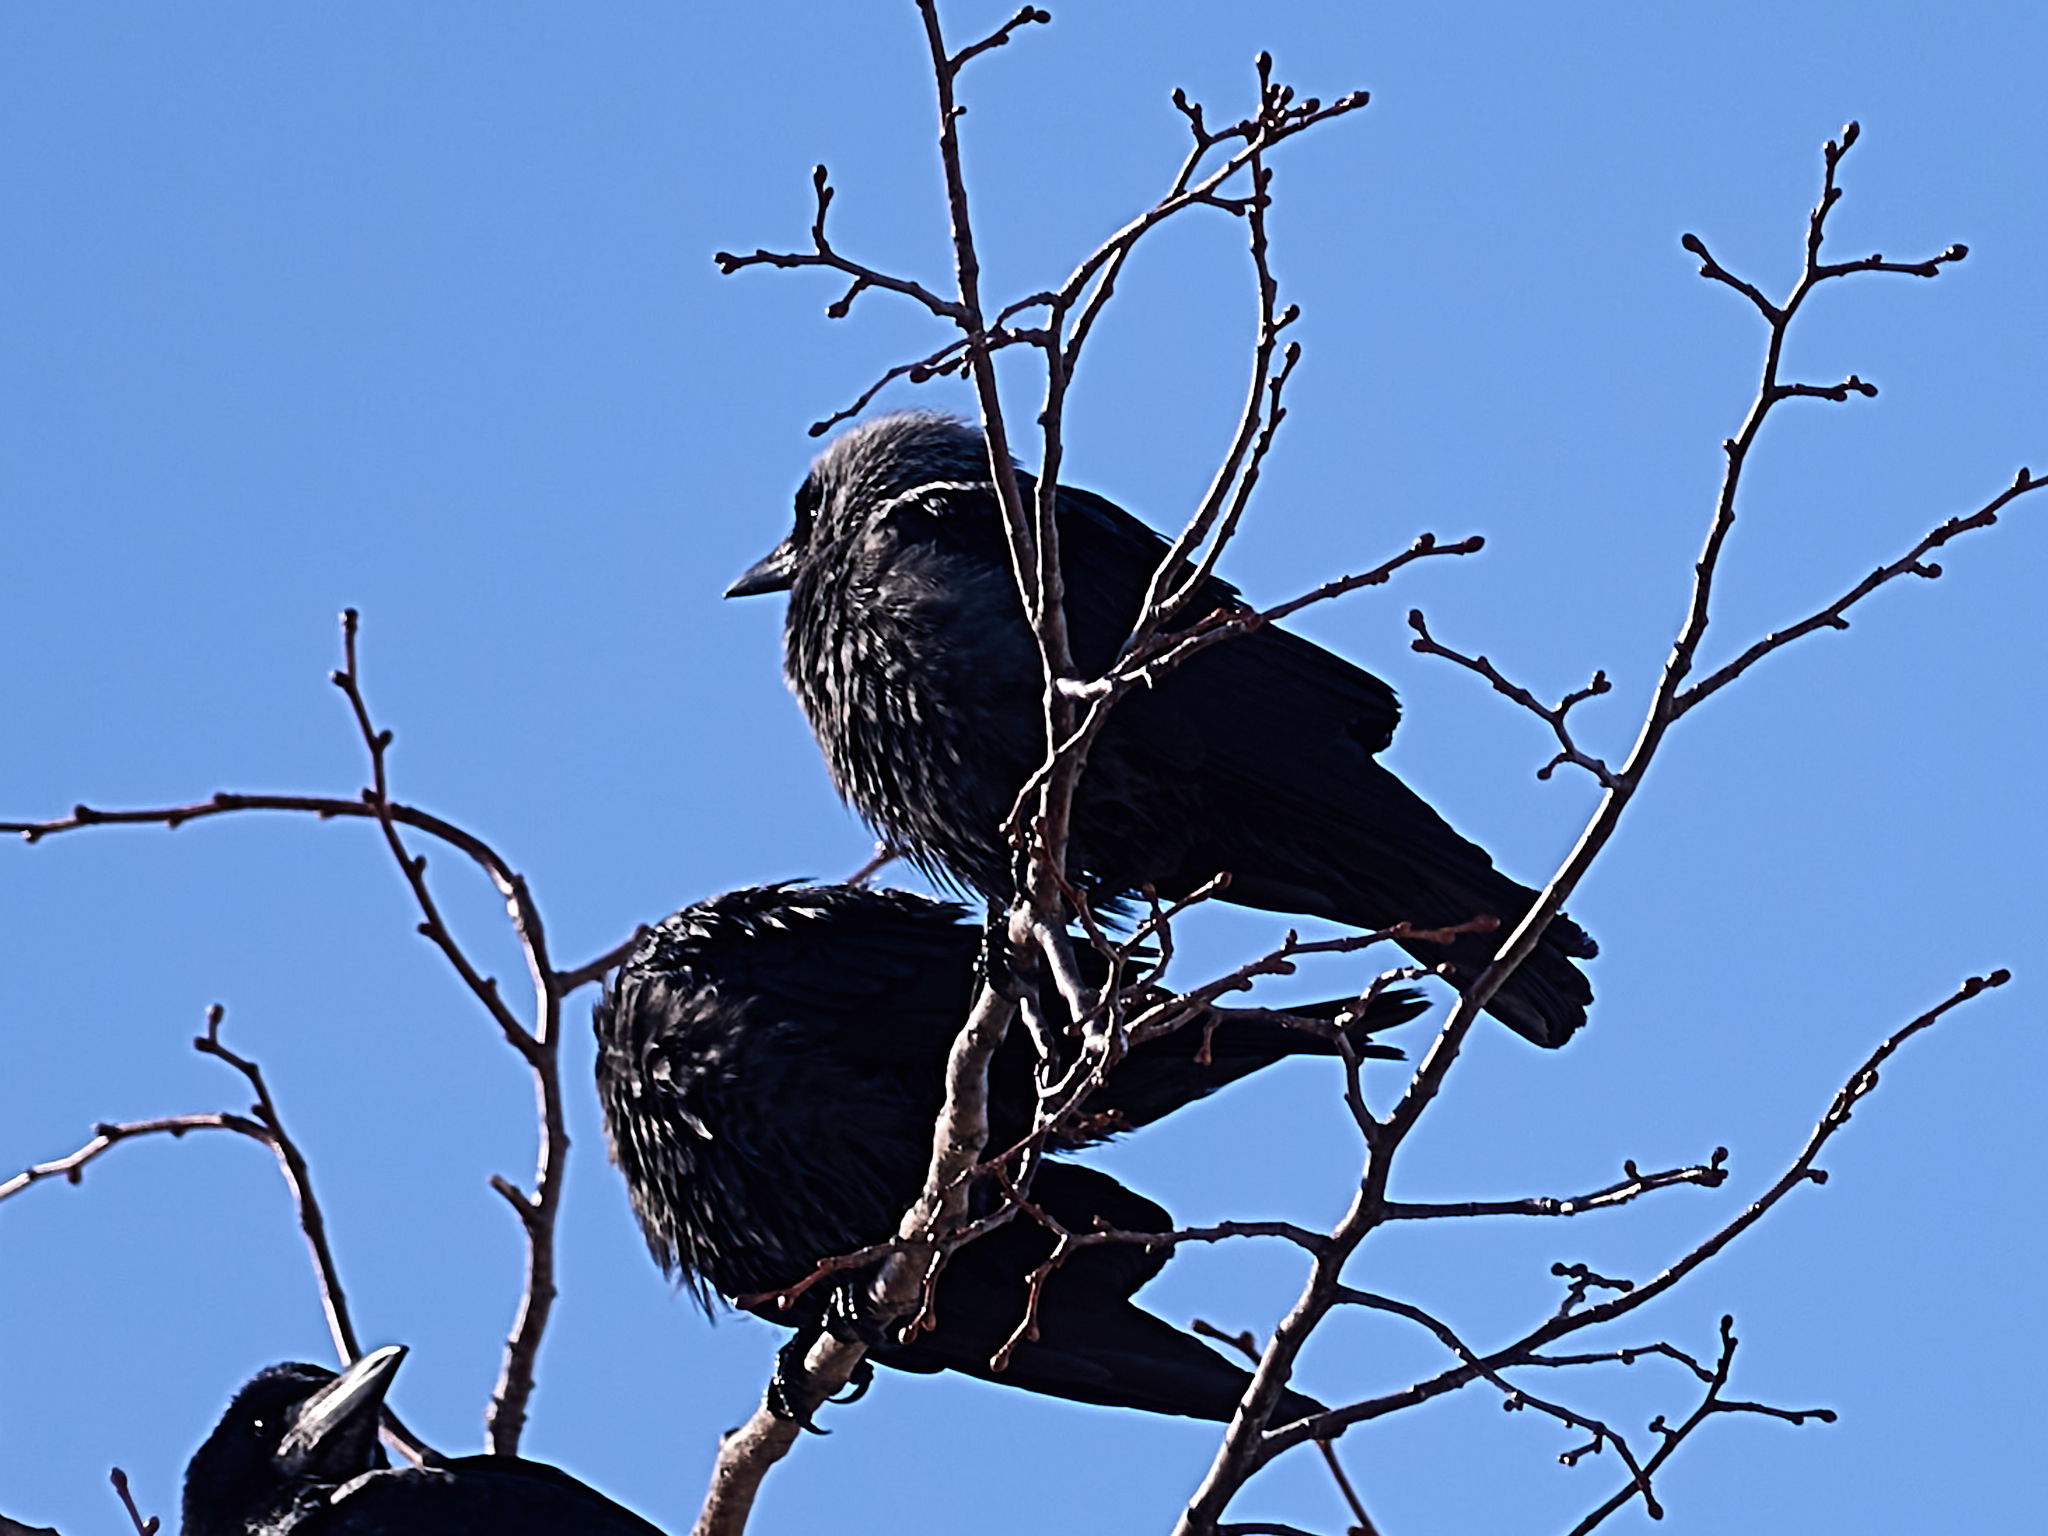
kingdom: Animalia
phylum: Chordata
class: Aves
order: Passeriformes
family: Corvidae
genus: Coloeus
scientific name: Coloeus monedula
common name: Western jackdaw
